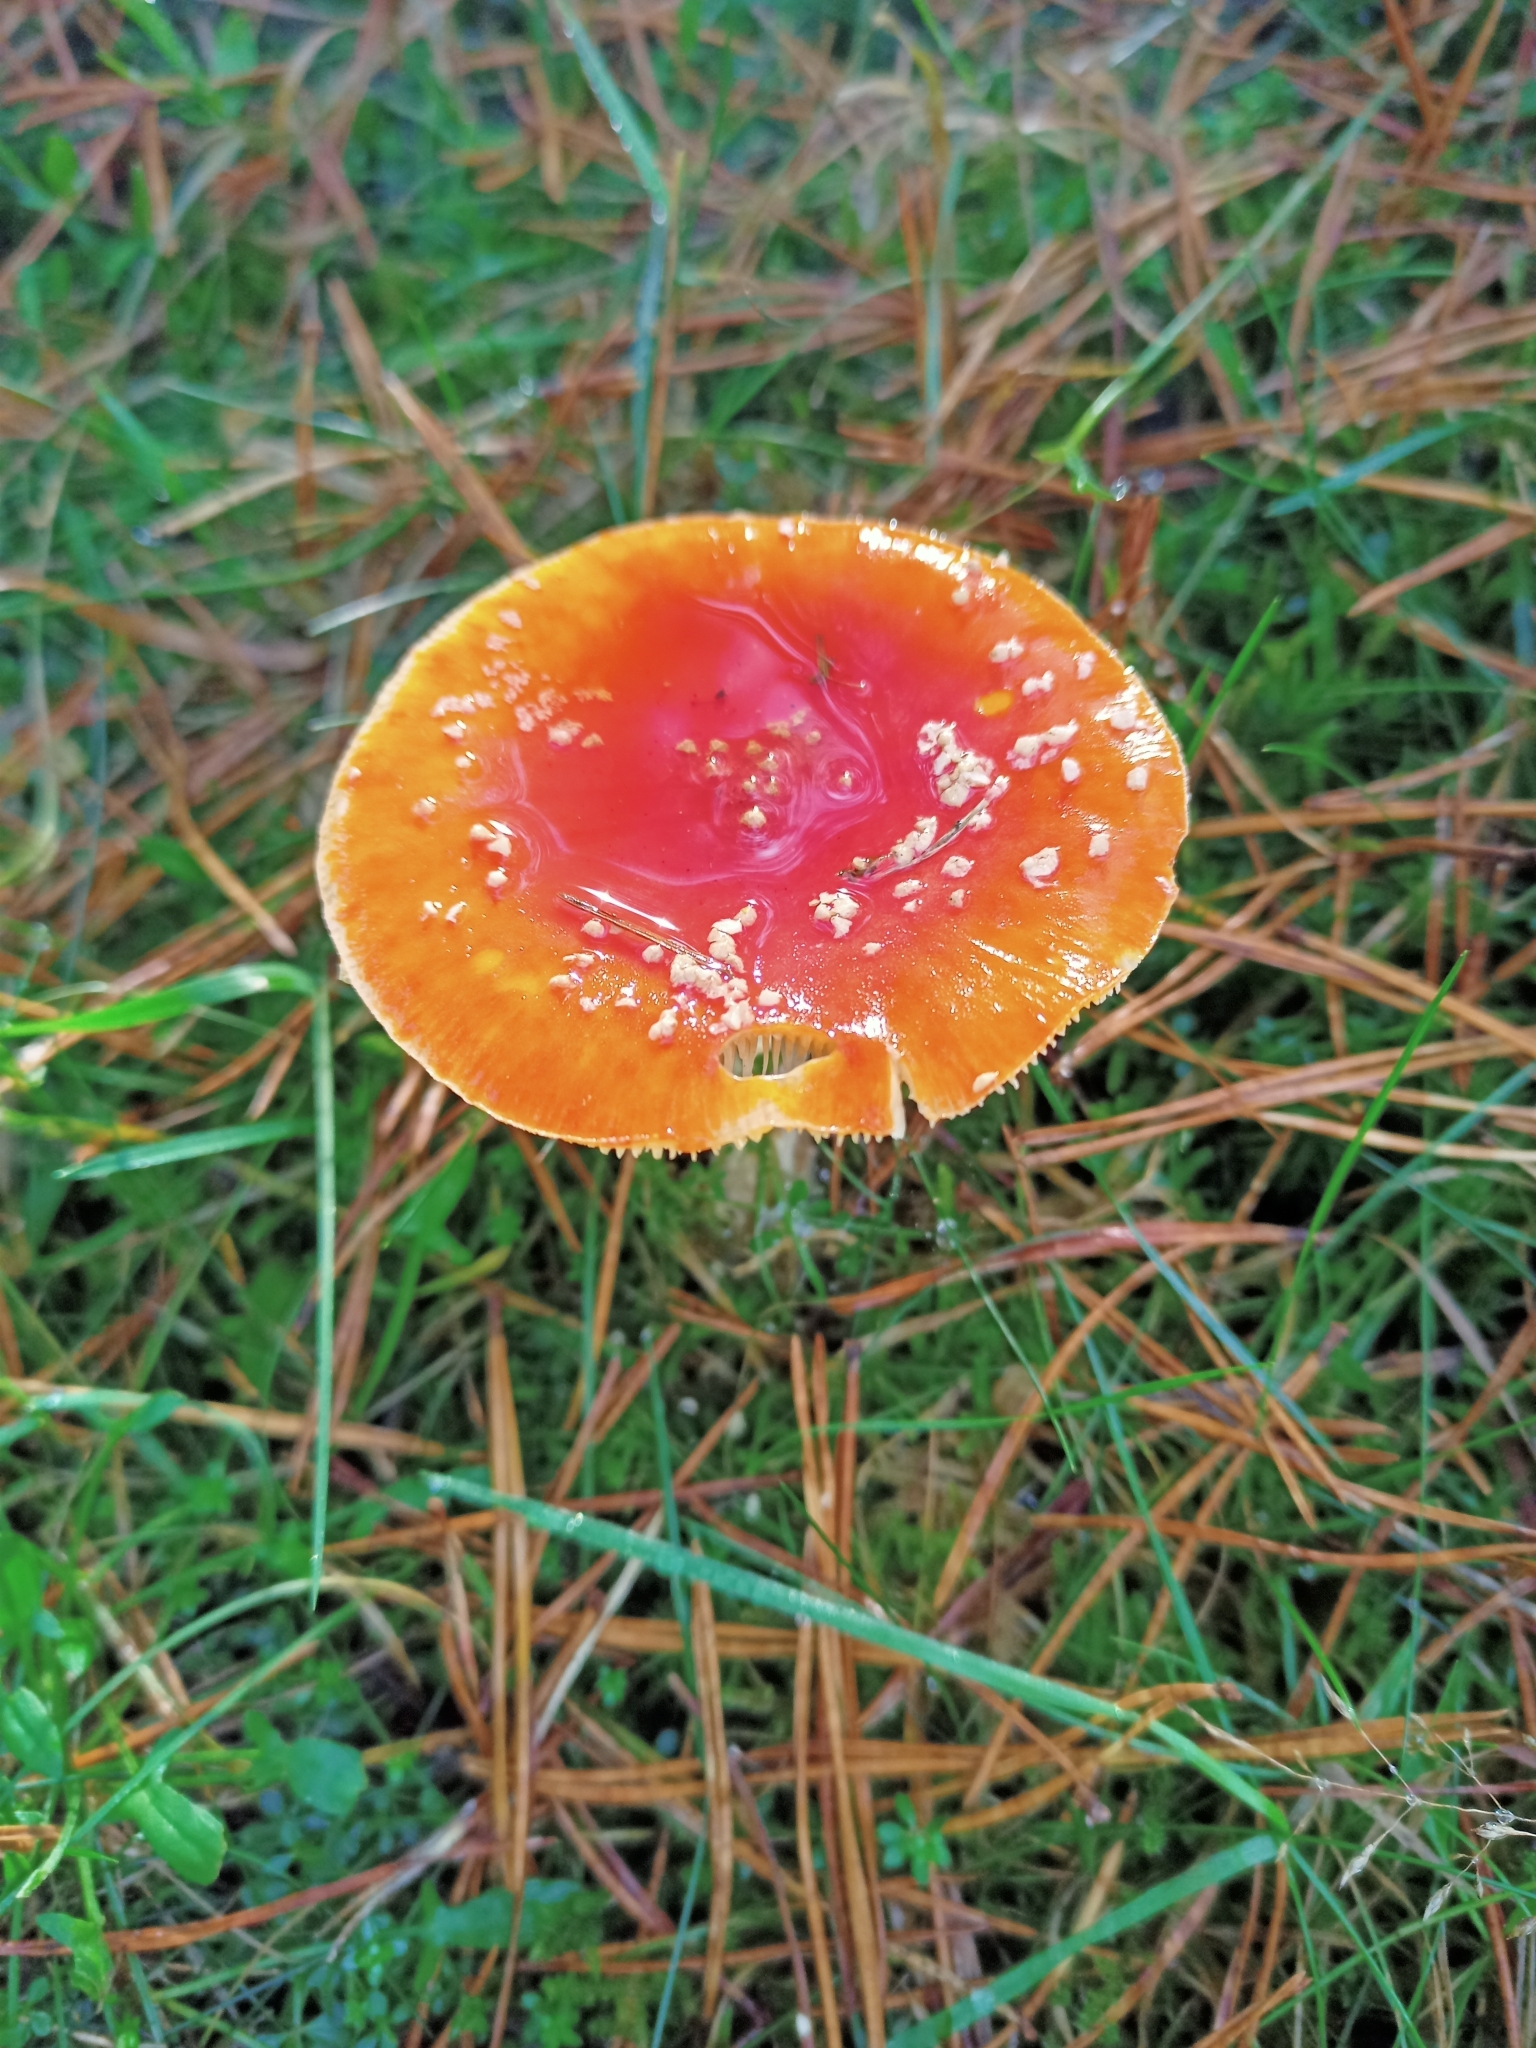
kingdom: Fungi
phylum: Basidiomycota
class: Agaricomycetes
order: Agaricales
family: Amanitaceae
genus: Amanita
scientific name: Amanita muscaria
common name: Fly agaric
